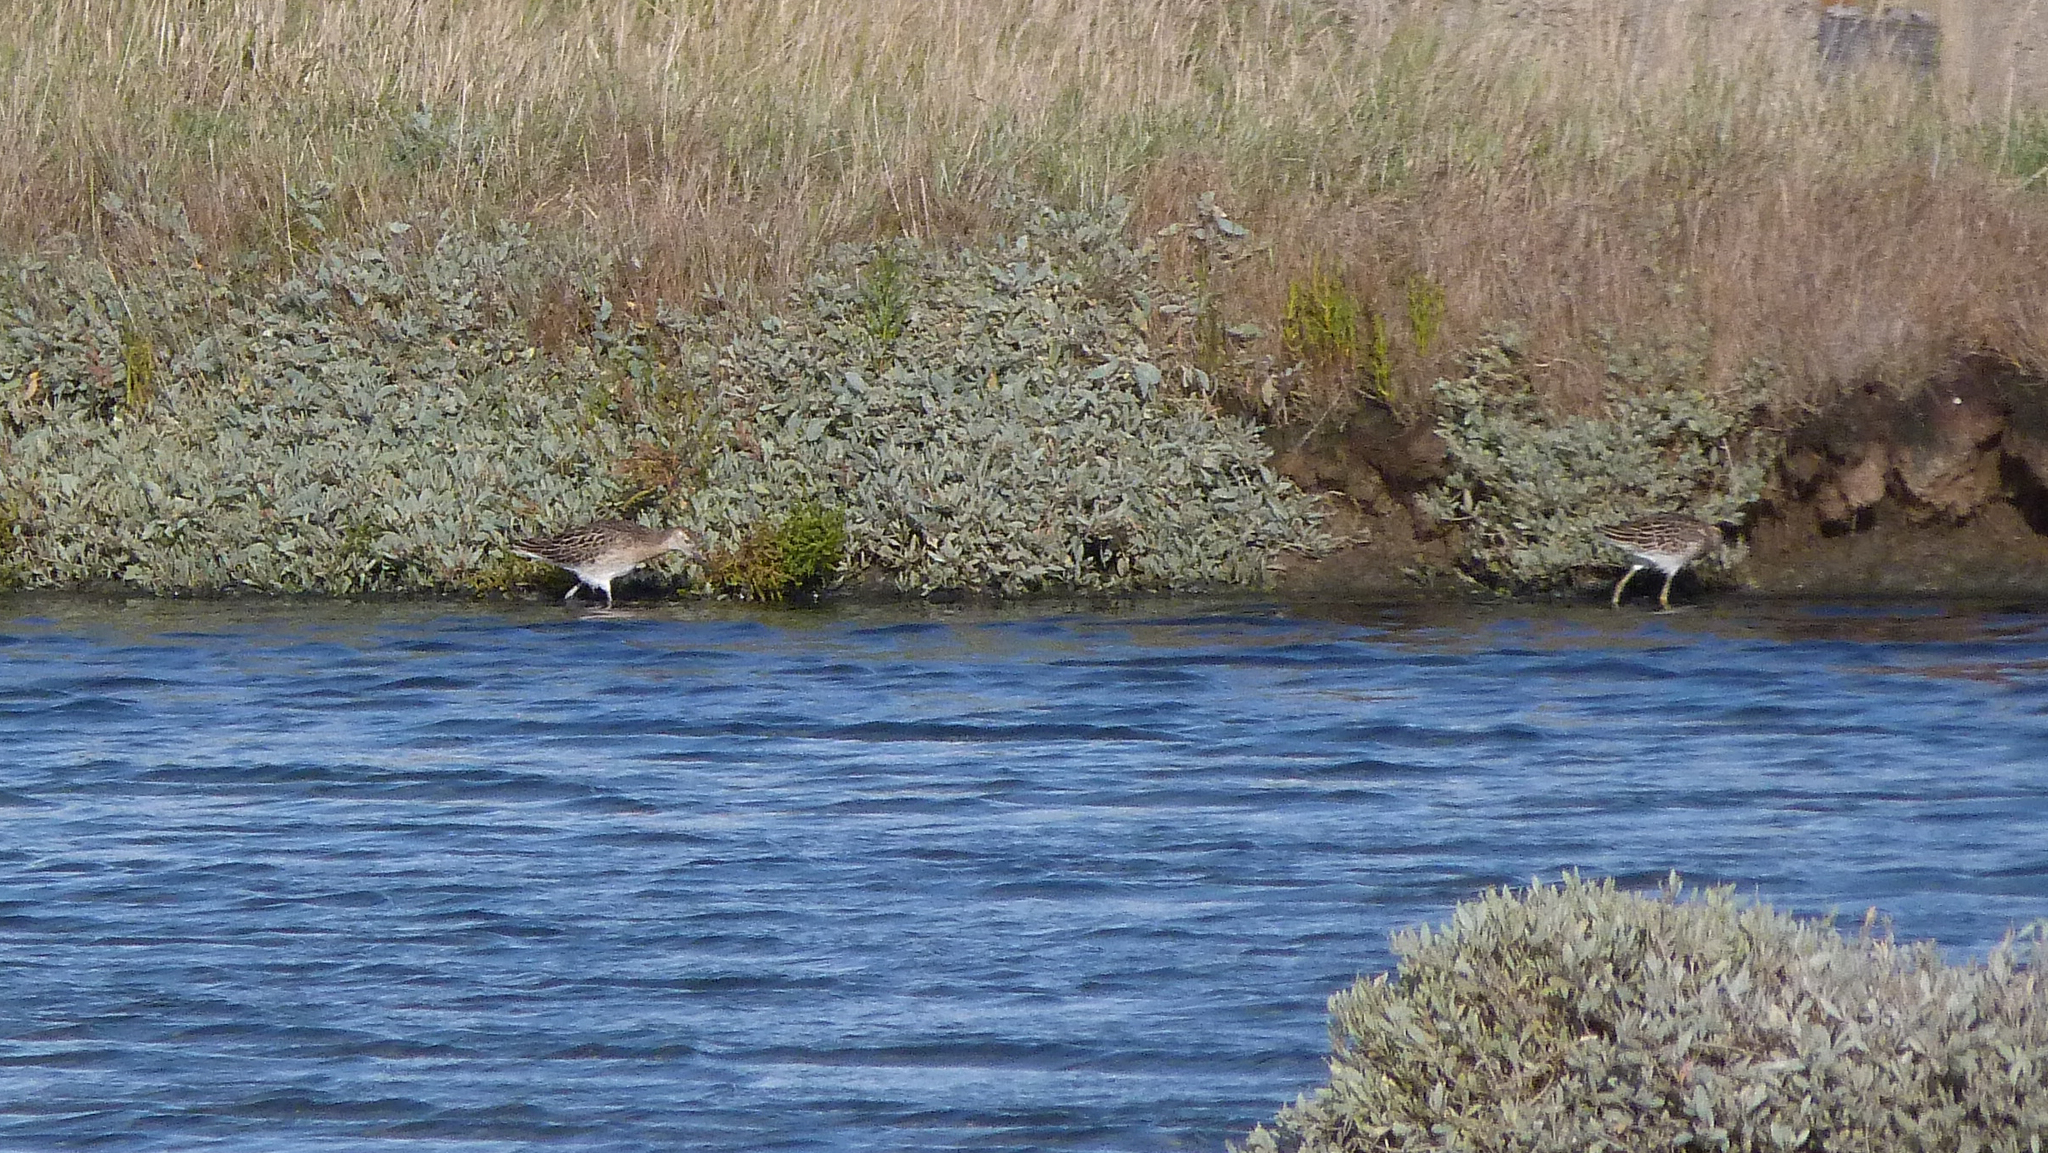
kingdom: Animalia
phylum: Chordata
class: Aves
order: Charadriiformes
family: Scolopacidae
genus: Calidris
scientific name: Calidris pugnax
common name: Ruff
